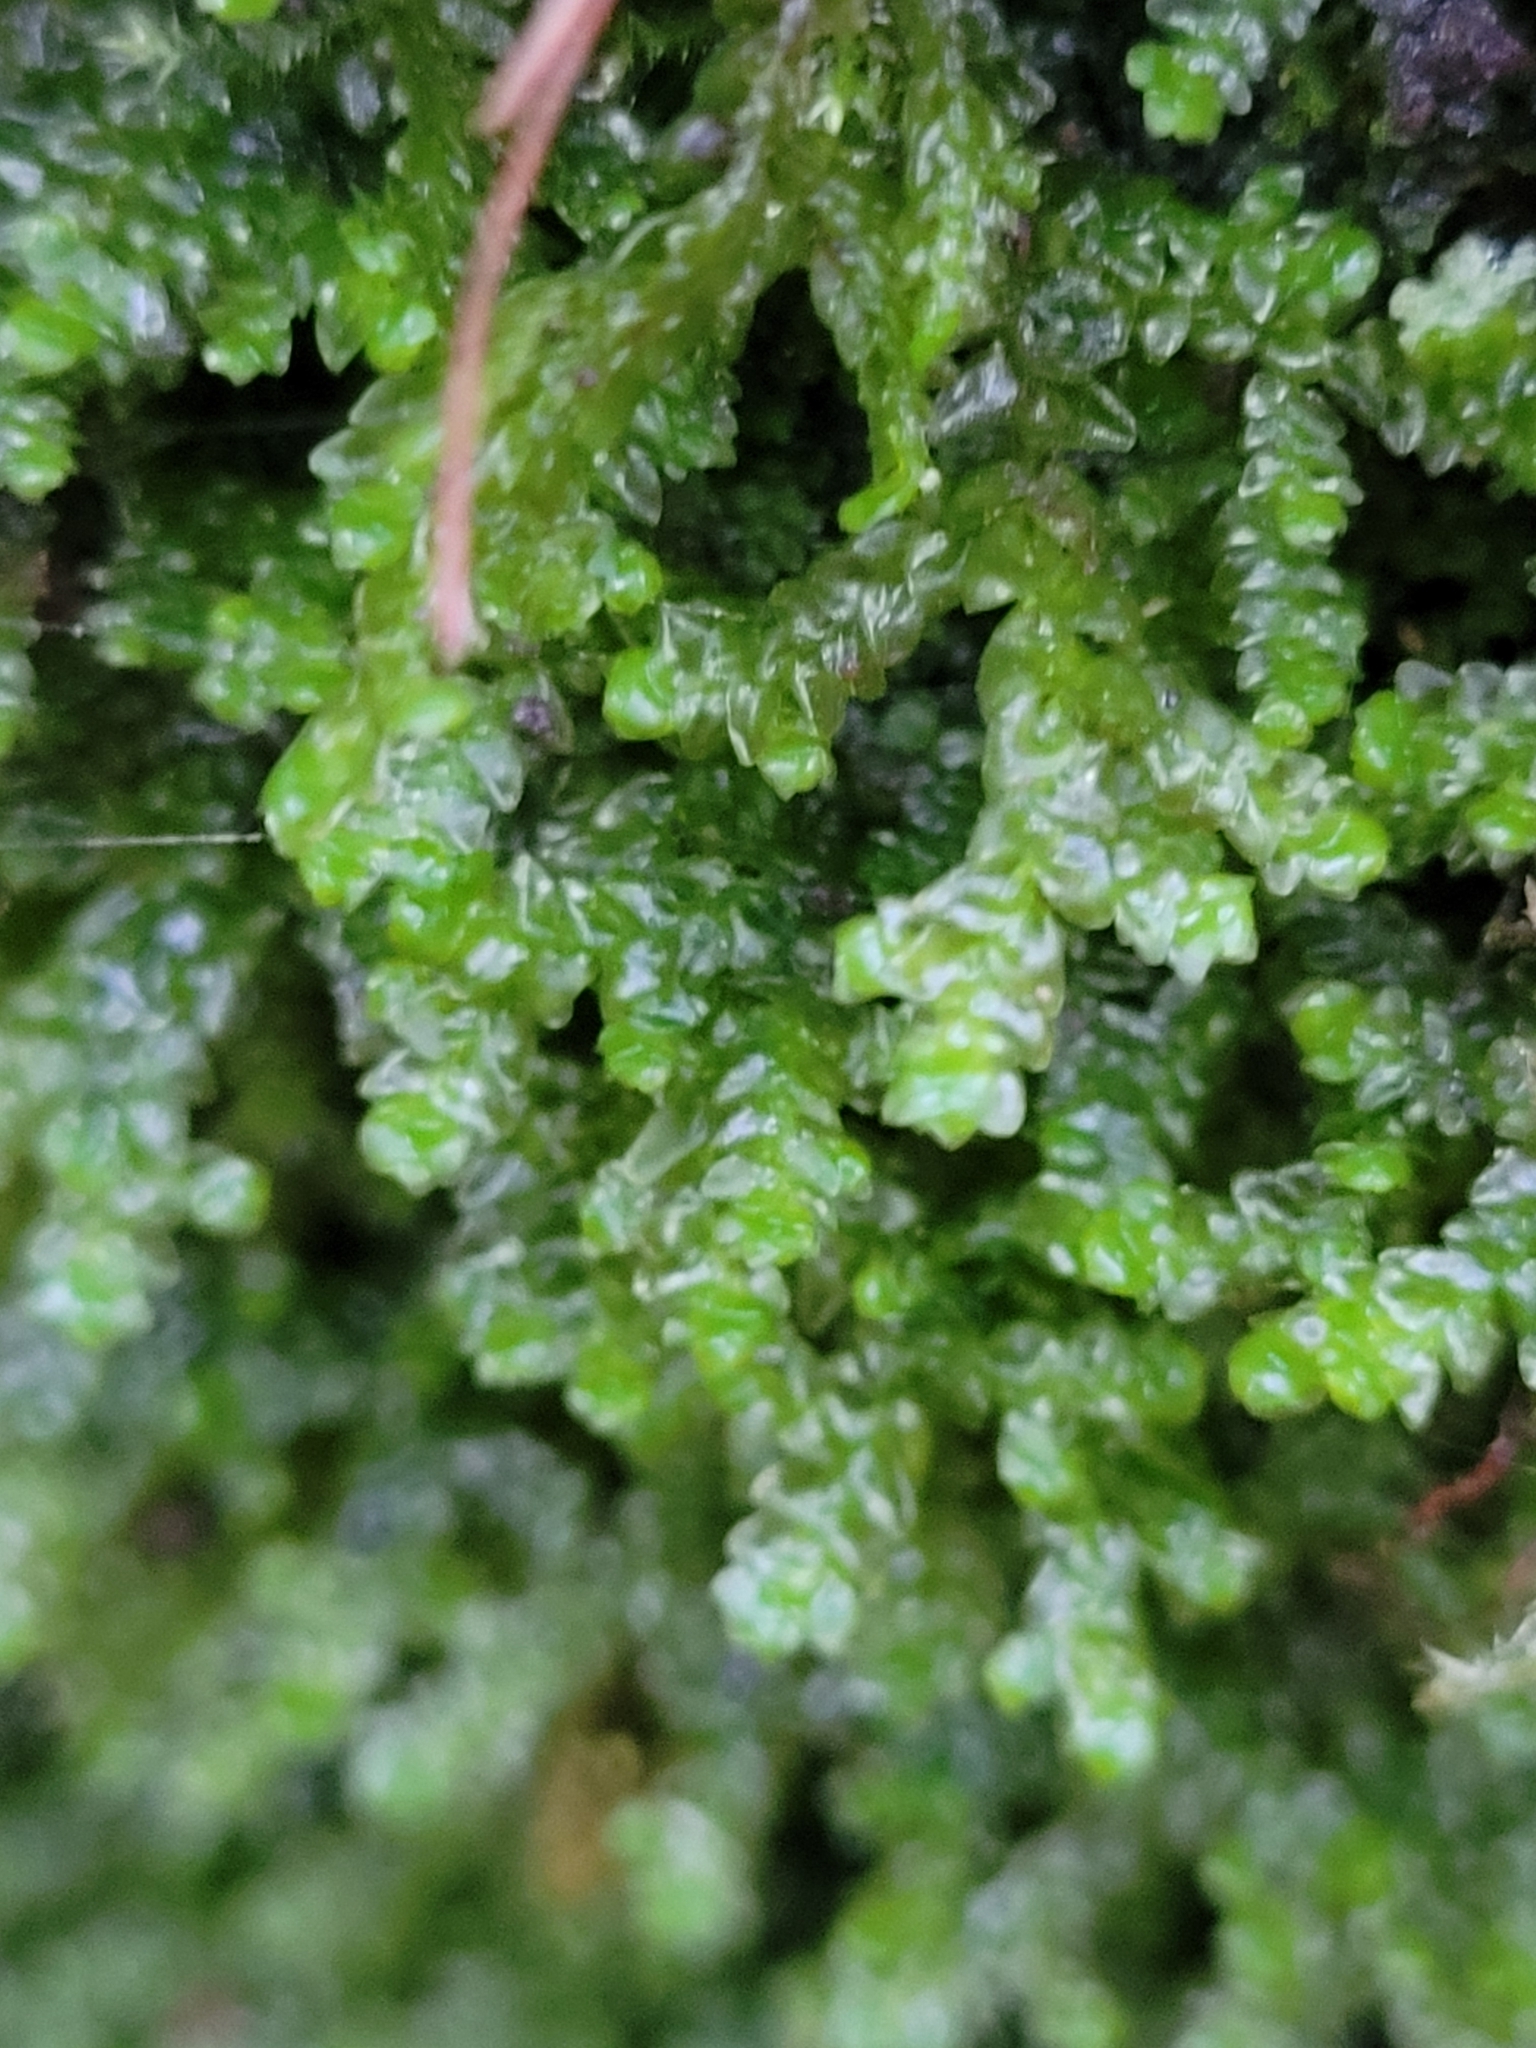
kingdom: Plantae
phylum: Marchantiophyta
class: Jungermanniopsida
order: Porellales
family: Porellaceae
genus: Porella
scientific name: Porella platyphylla
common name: Wall scalewort
